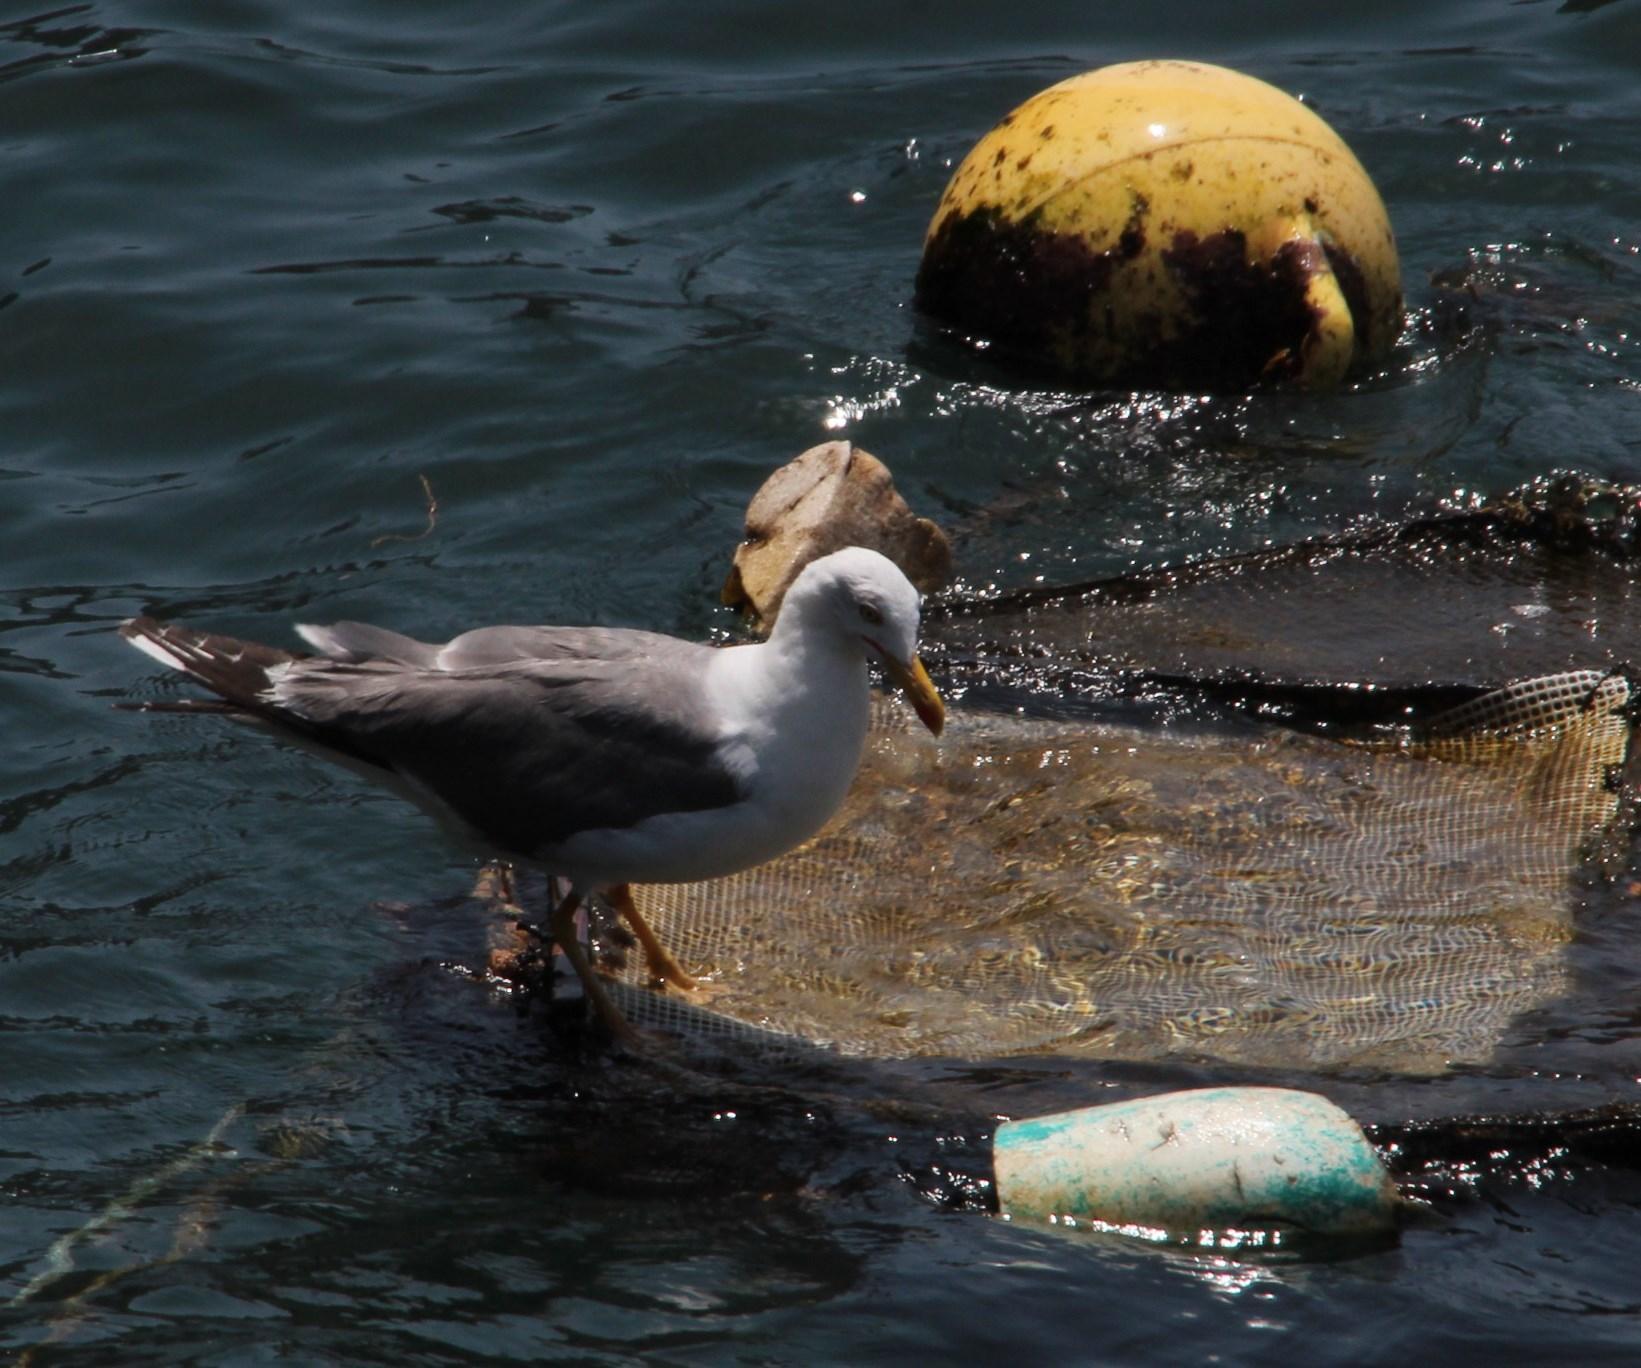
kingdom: Animalia
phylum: Chordata
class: Aves
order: Charadriiformes
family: Laridae
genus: Larus
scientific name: Larus michahellis
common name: Yellow-legged gull
